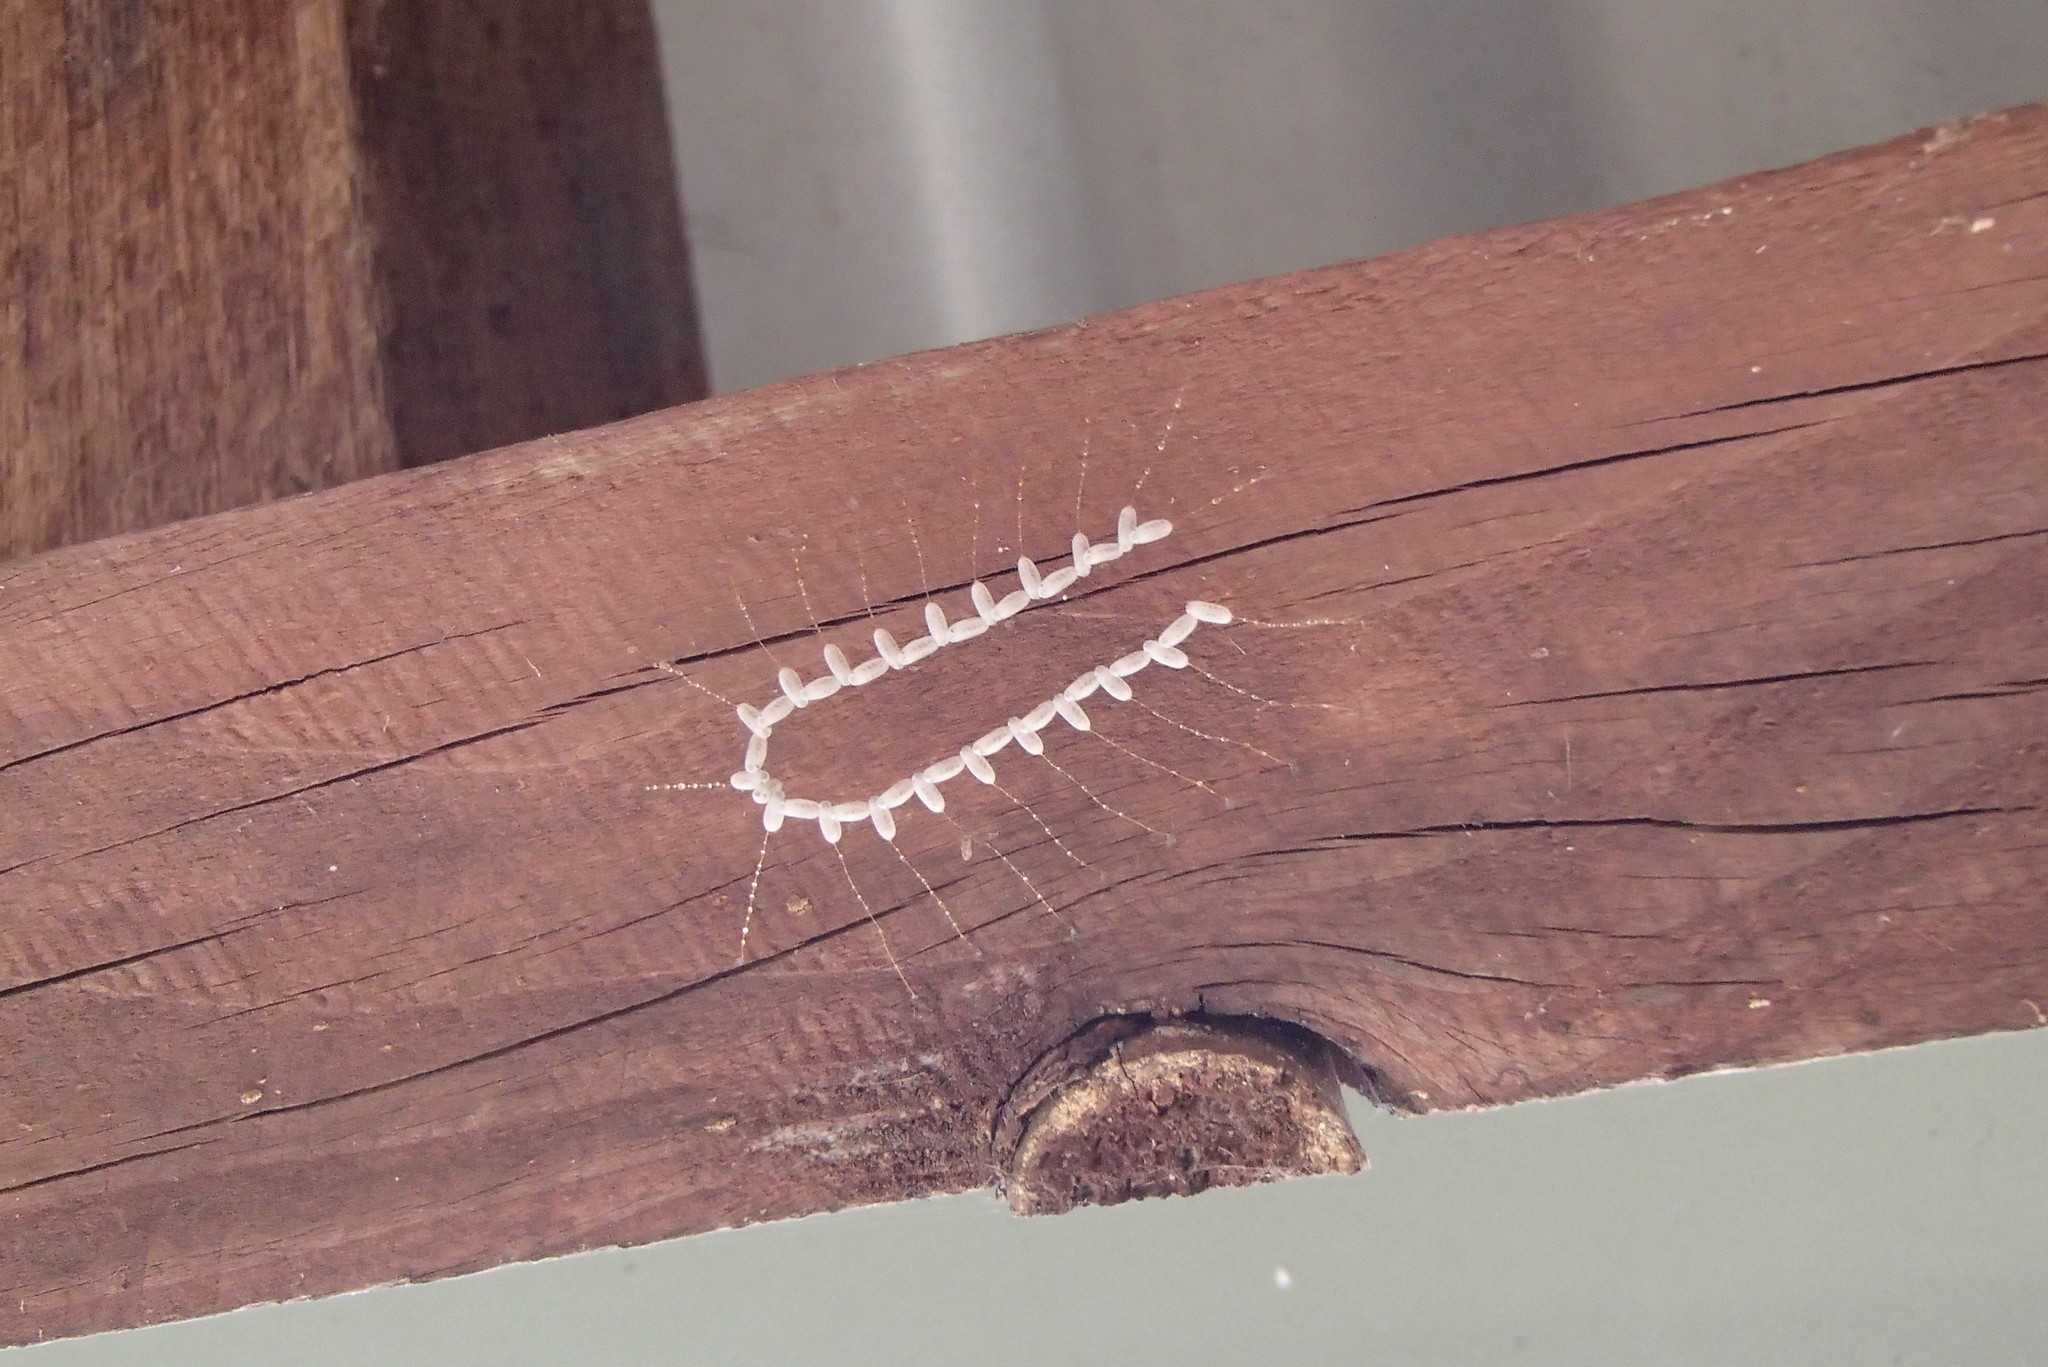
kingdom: Animalia
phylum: Arthropoda
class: Insecta
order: Neuroptera
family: Nymphidae
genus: Nymphes
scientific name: Nymphes myrmeleonoides
